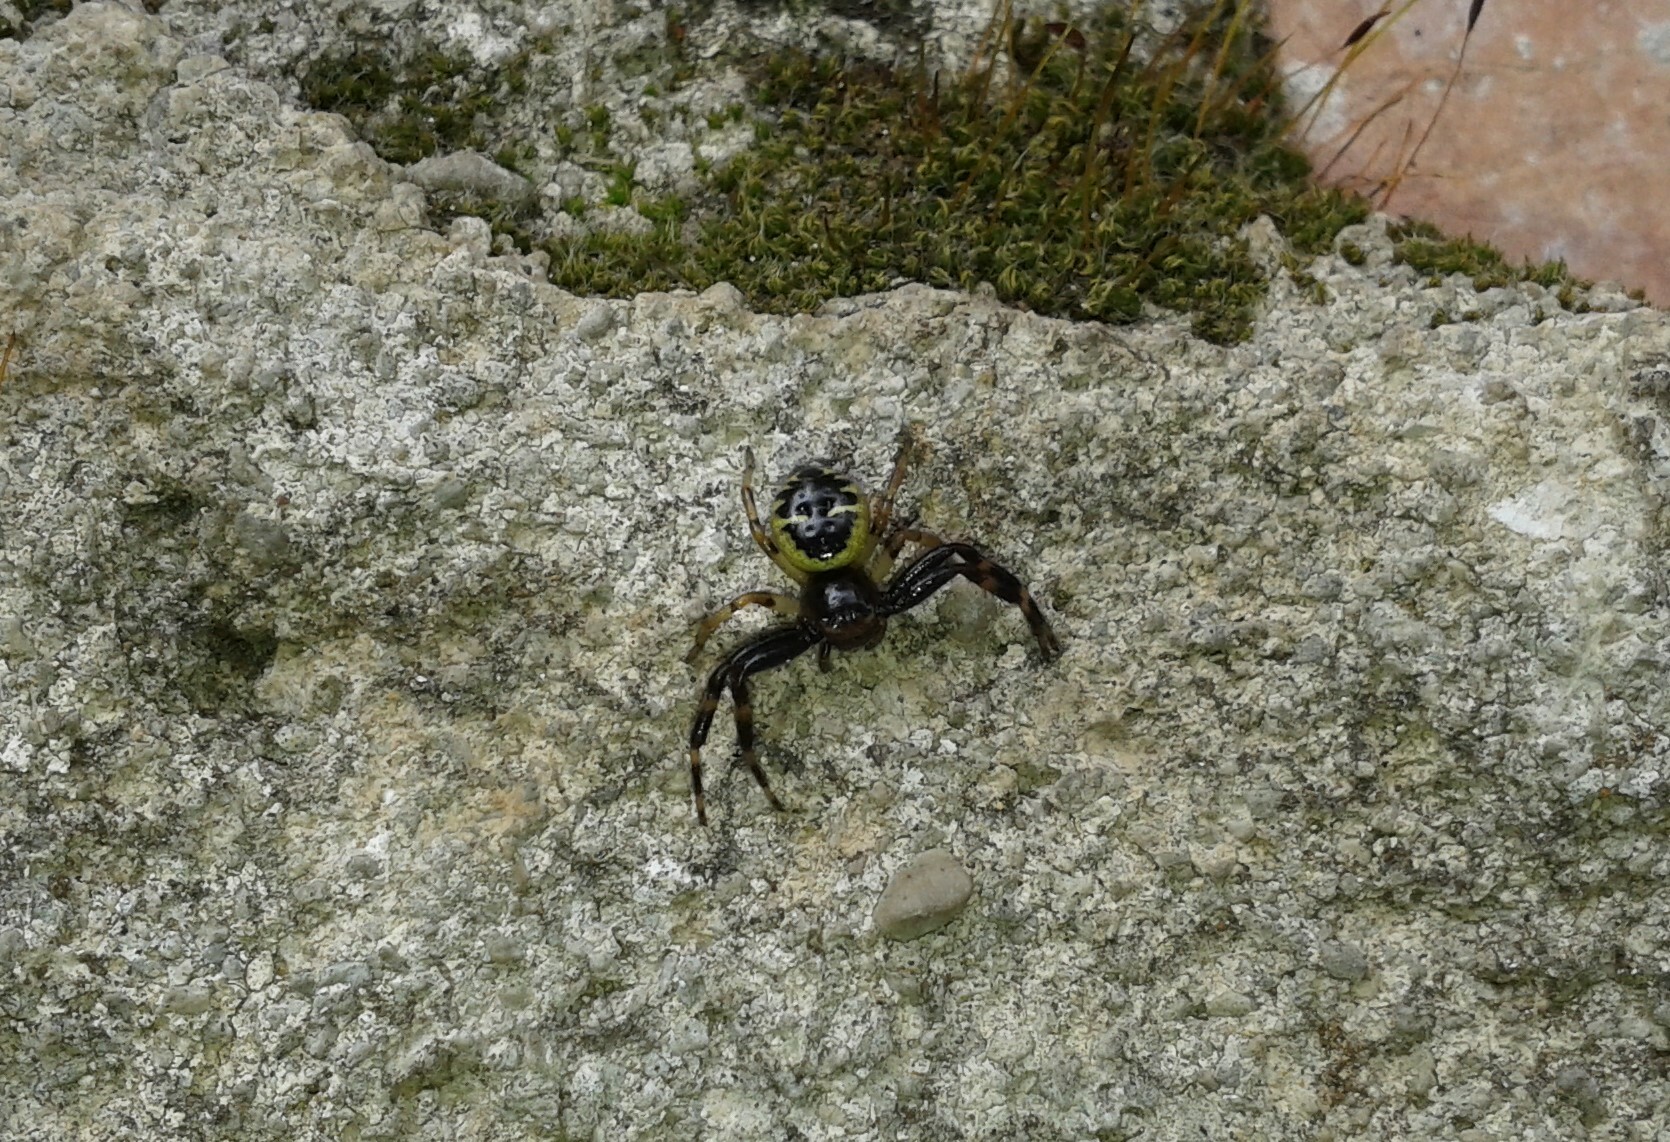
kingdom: Animalia
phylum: Arthropoda
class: Arachnida
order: Araneae
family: Thomisidae
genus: Synema
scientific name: Synema globosum
